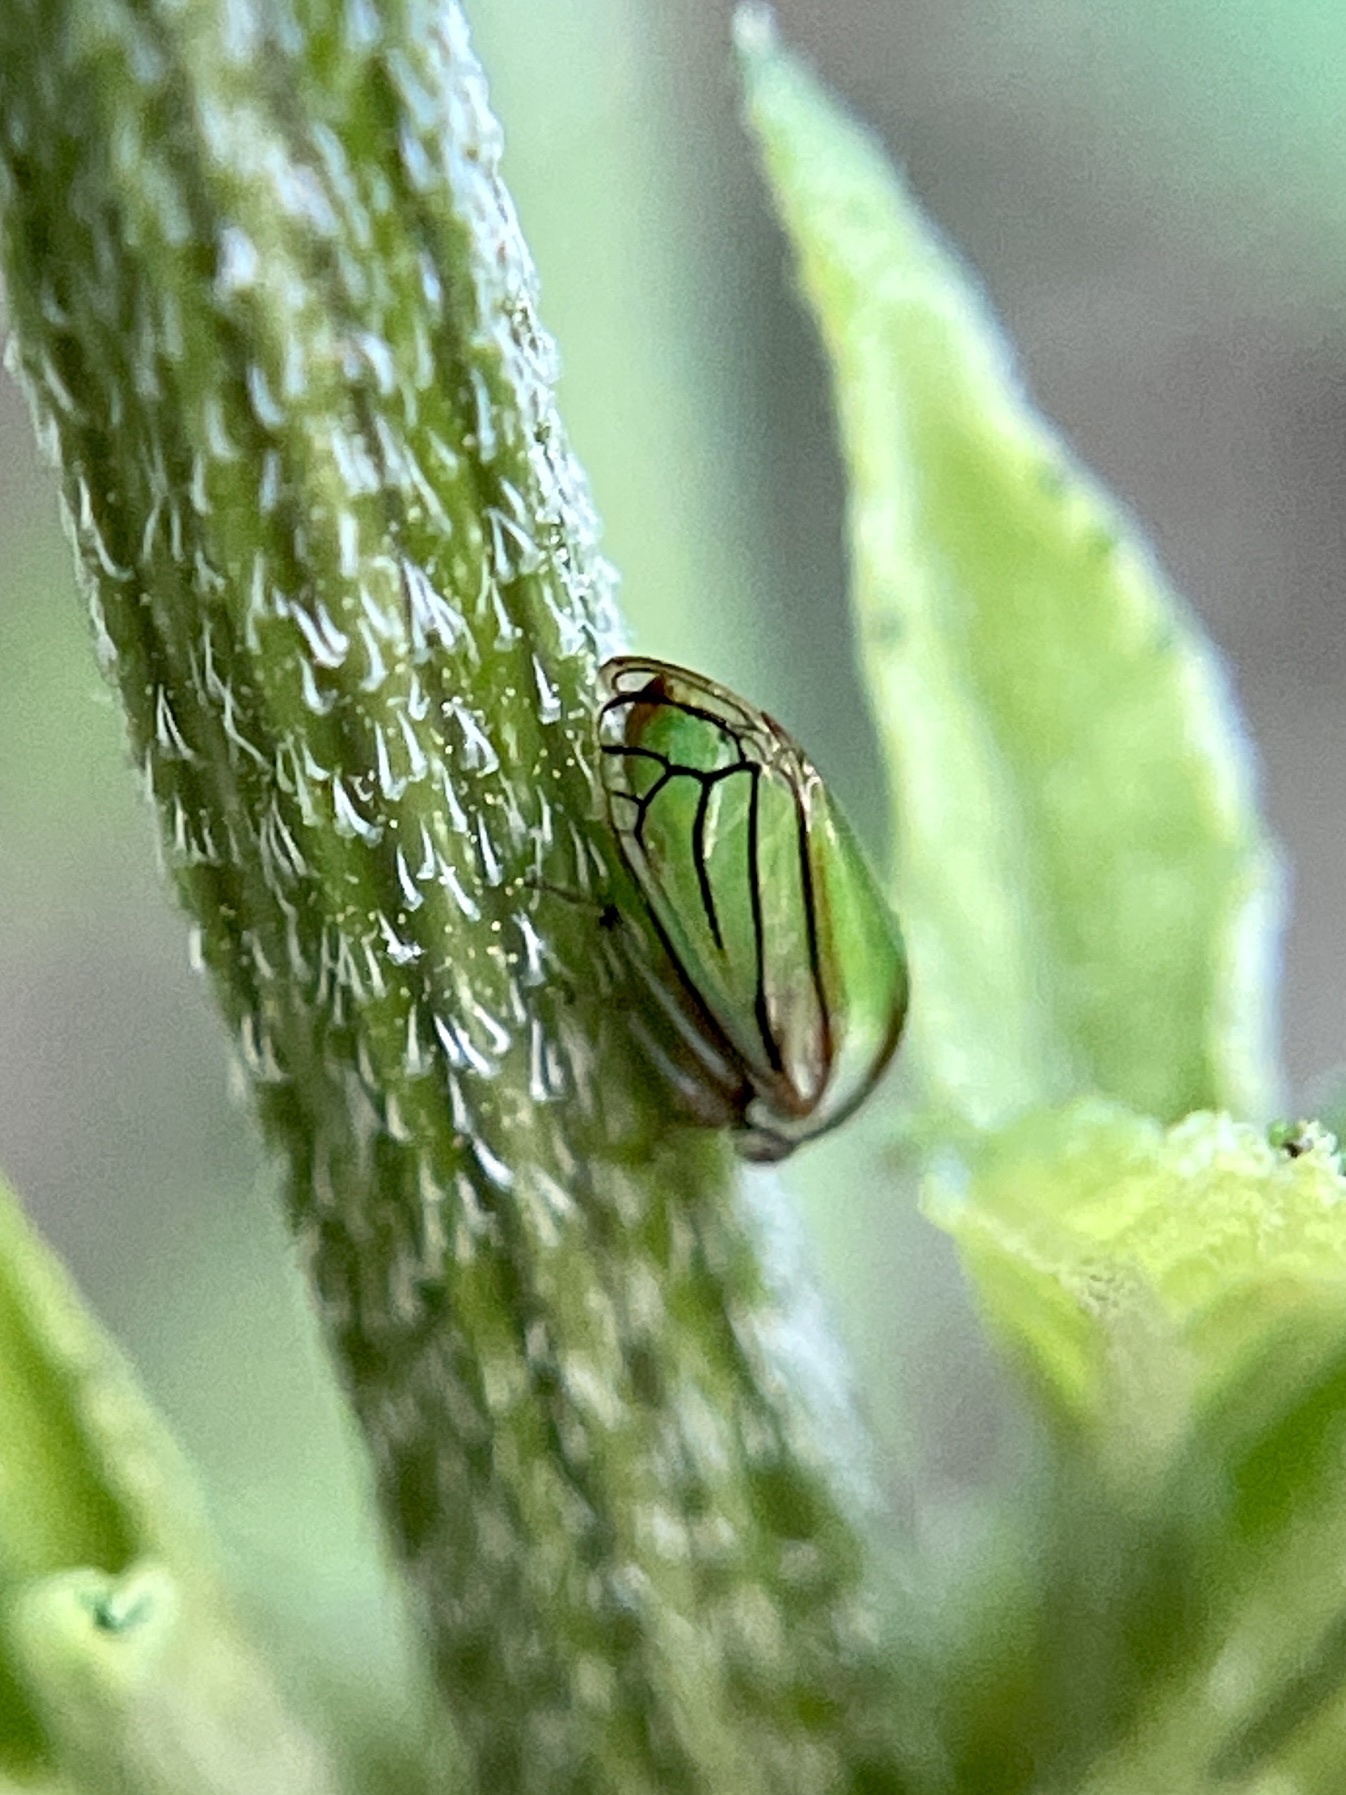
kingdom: Animalia
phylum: Arthropoda
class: Insecta
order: Hemiptera
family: Membracidae
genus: Acutalis
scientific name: Acutalis tartarea
